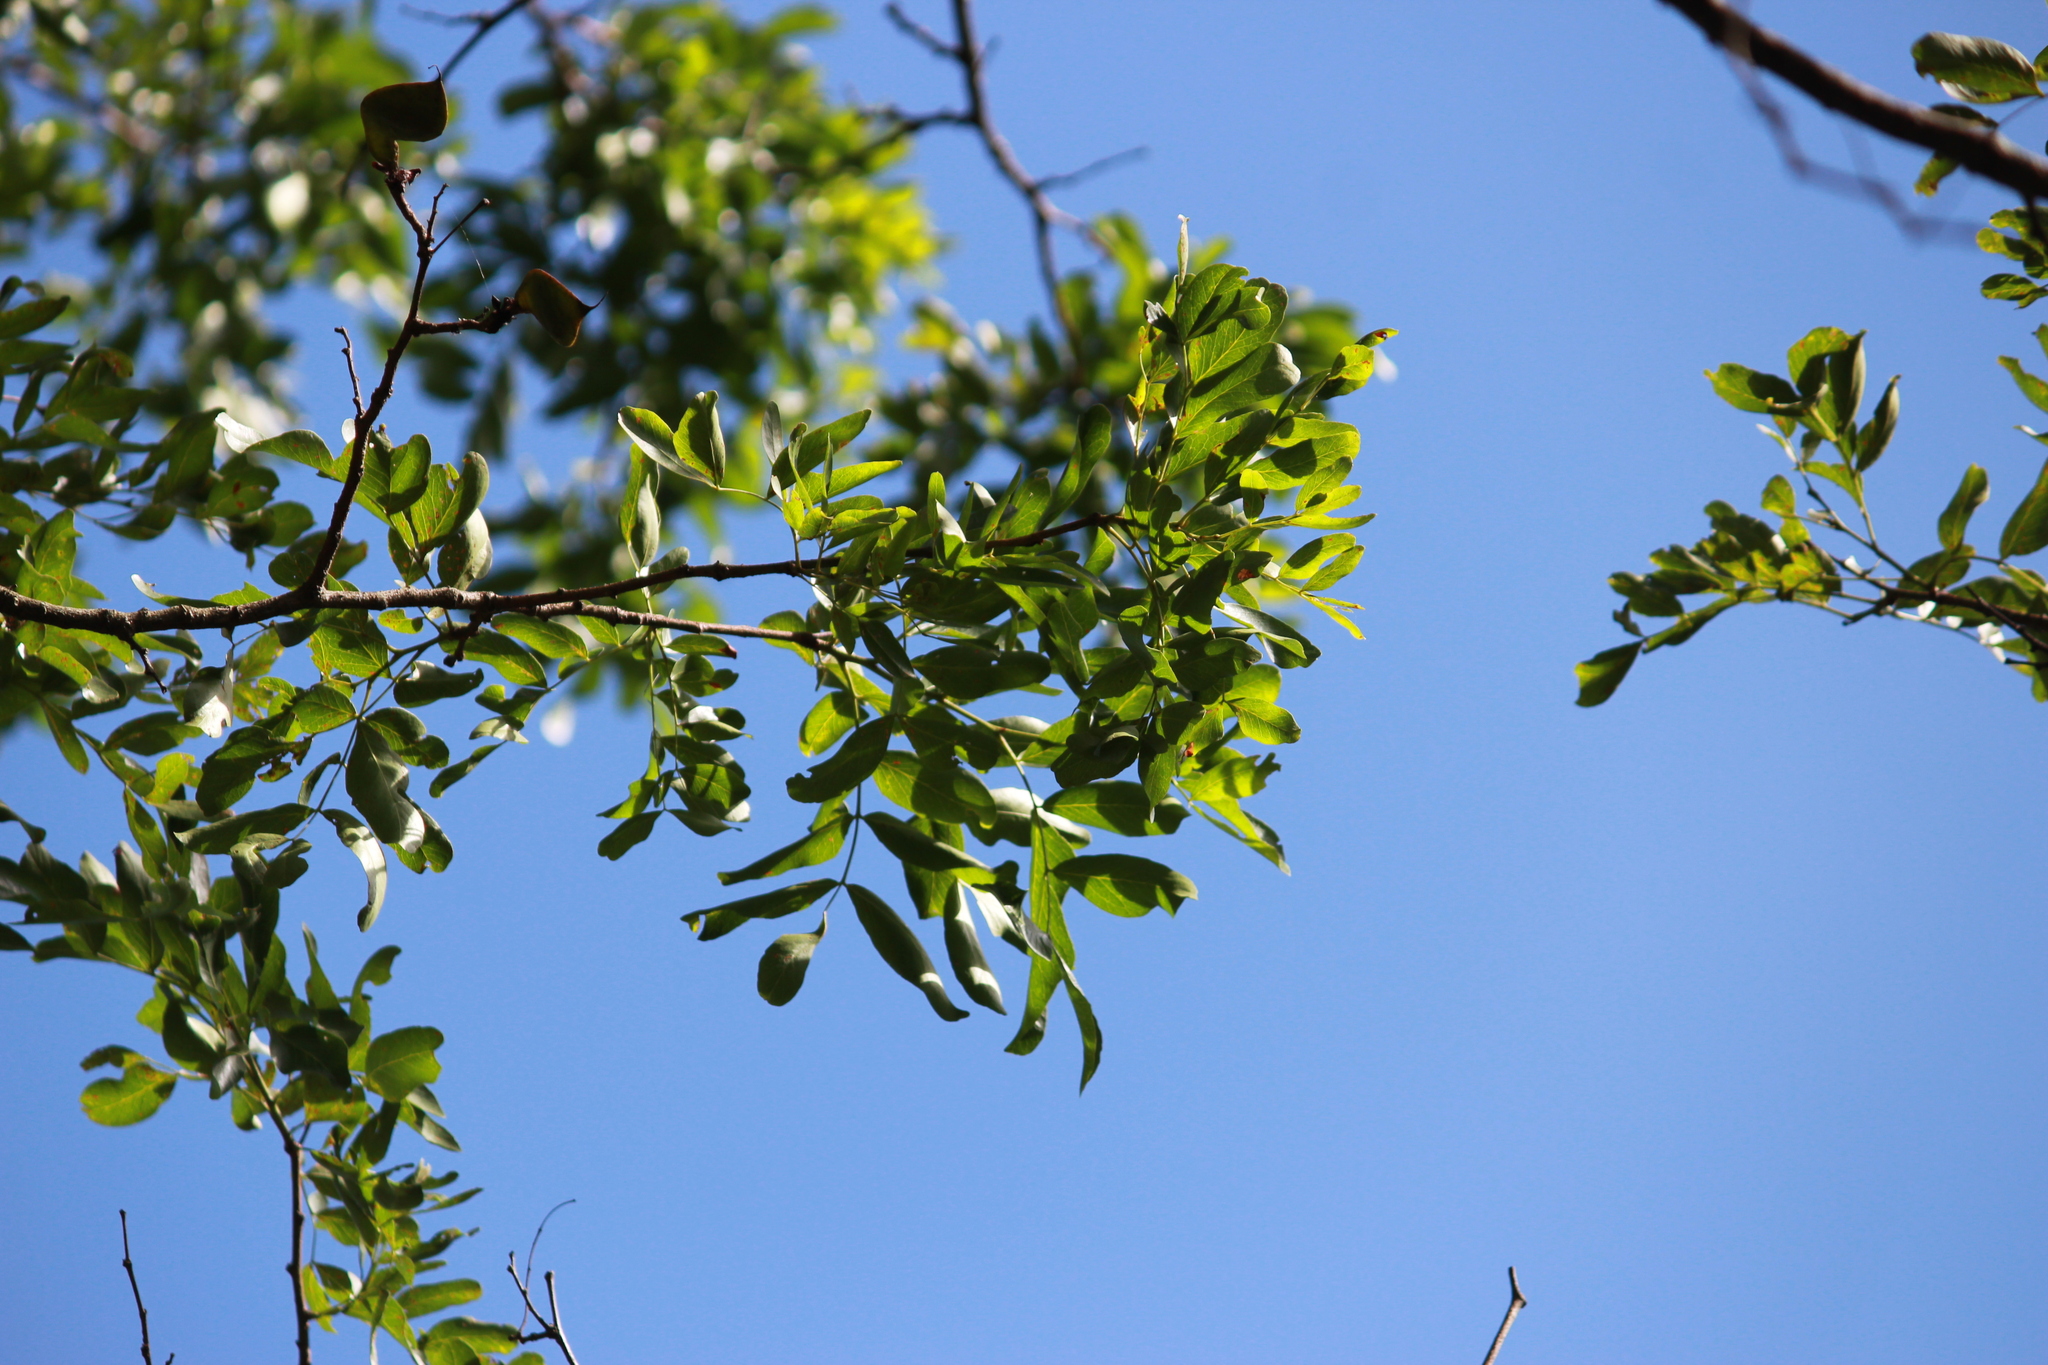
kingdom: Plantae
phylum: Tracheophyta
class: Magnoliopsida
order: Fabales
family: Fabaceae
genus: Schotia
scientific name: Schotia brachypetala
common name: Weeping boer-bean
